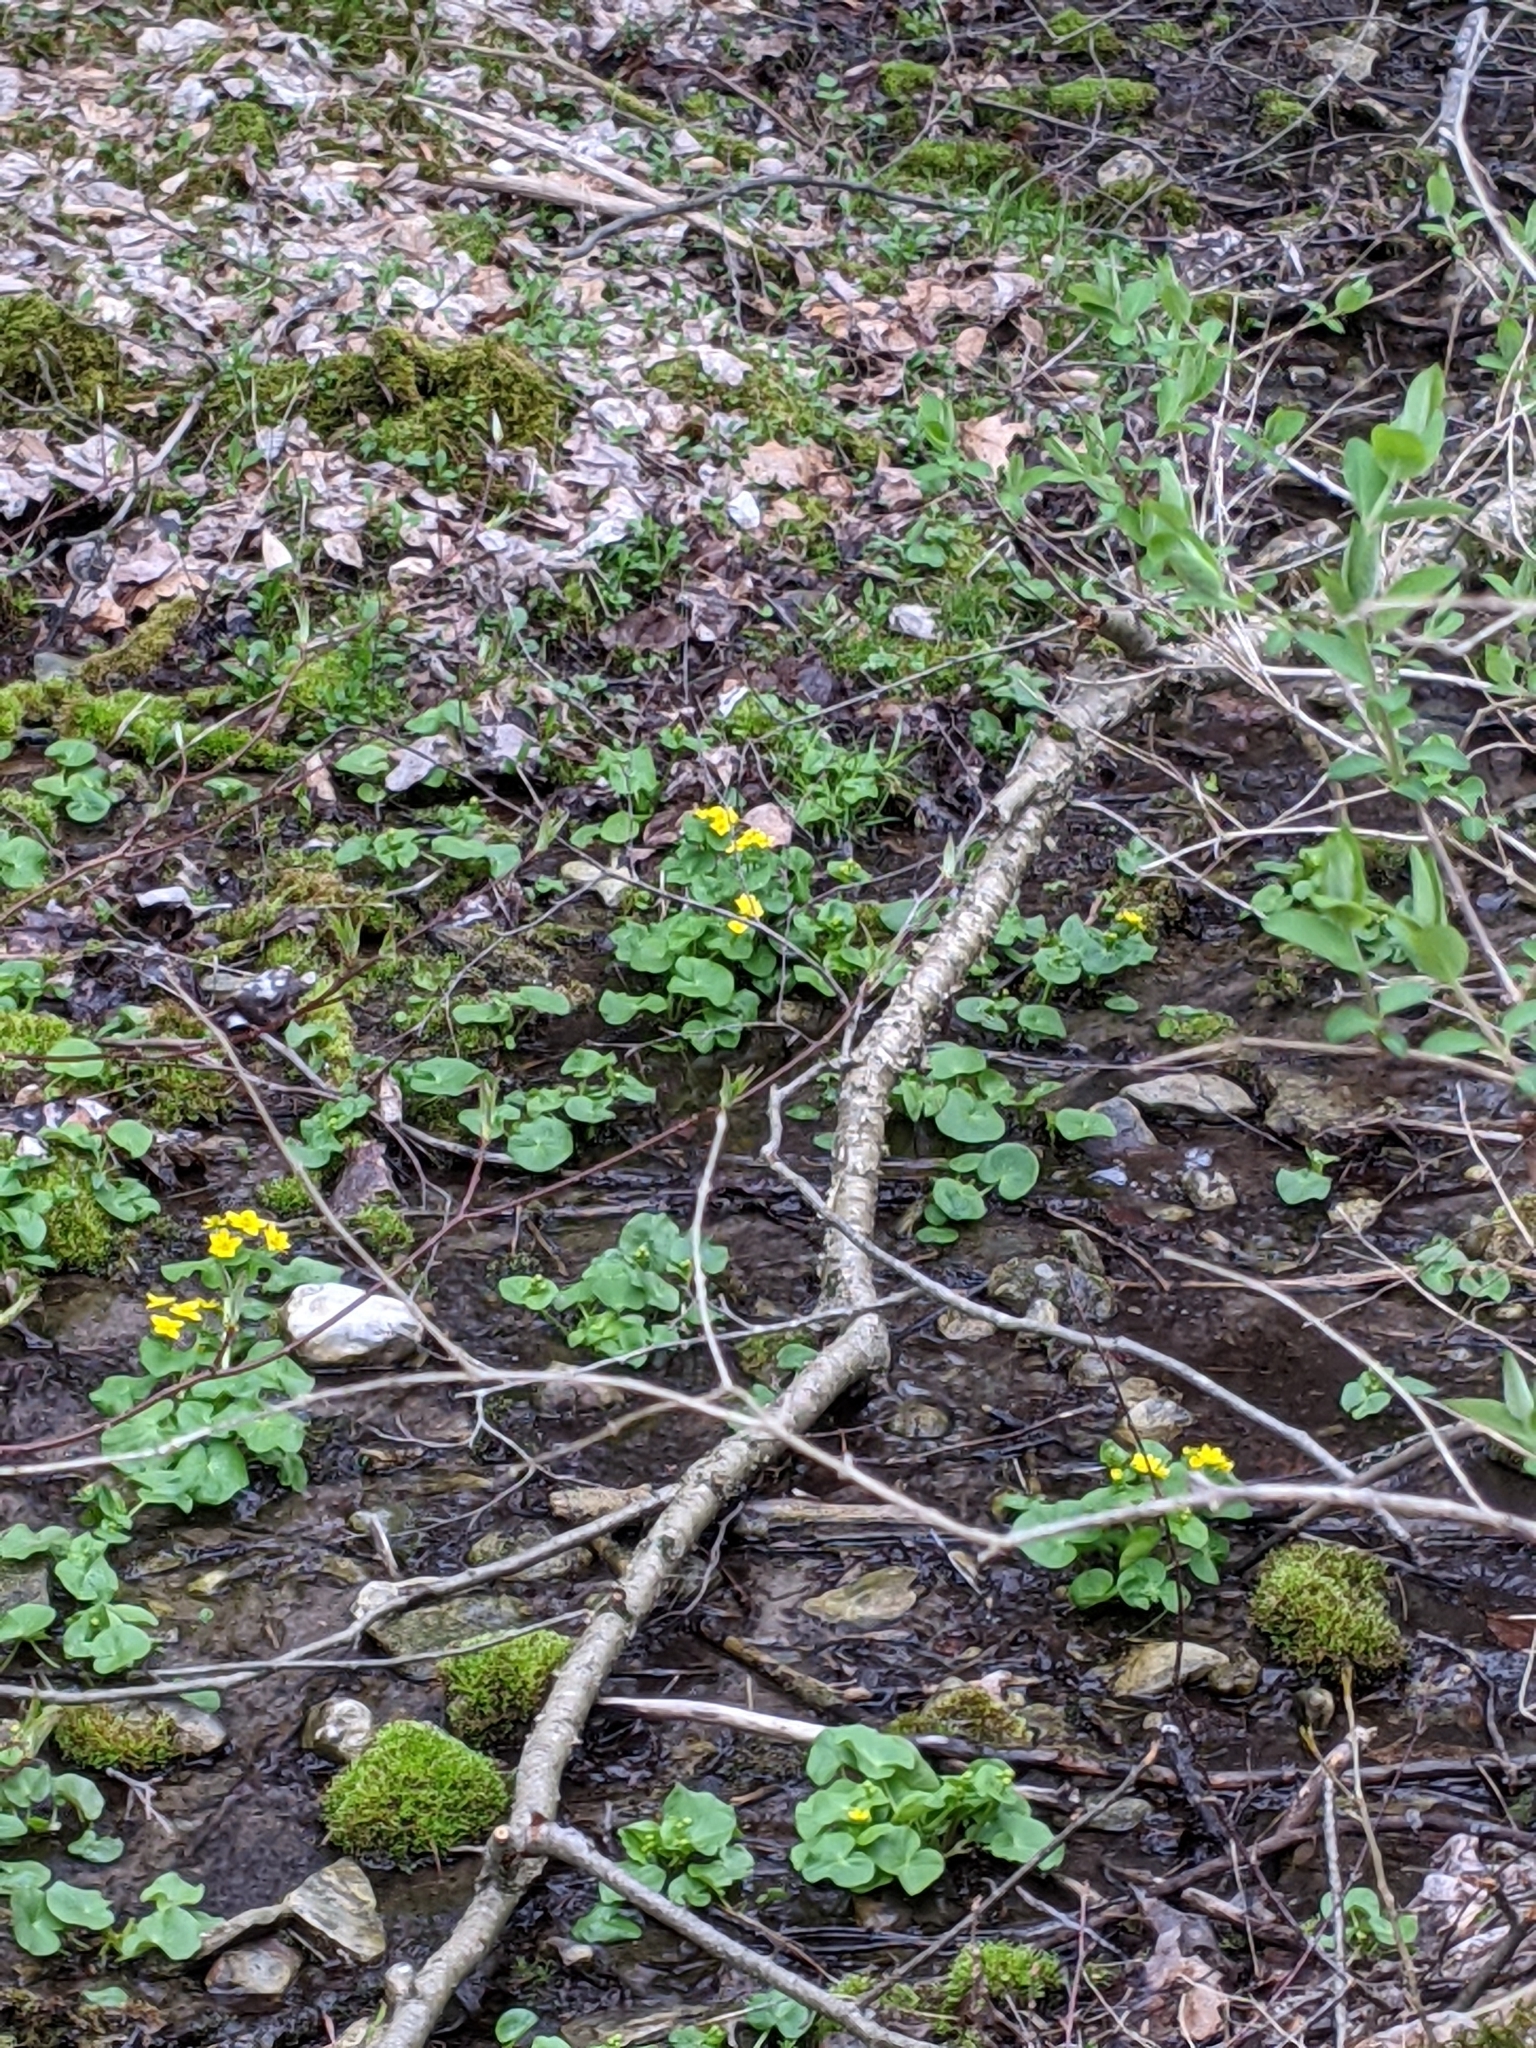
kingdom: Plantae
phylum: Tracheophyta
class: Magnoliopsida
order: Ranunculales
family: Ranunculaceae
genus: Caltha
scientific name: Caltha palustris
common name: Marsh marigold
